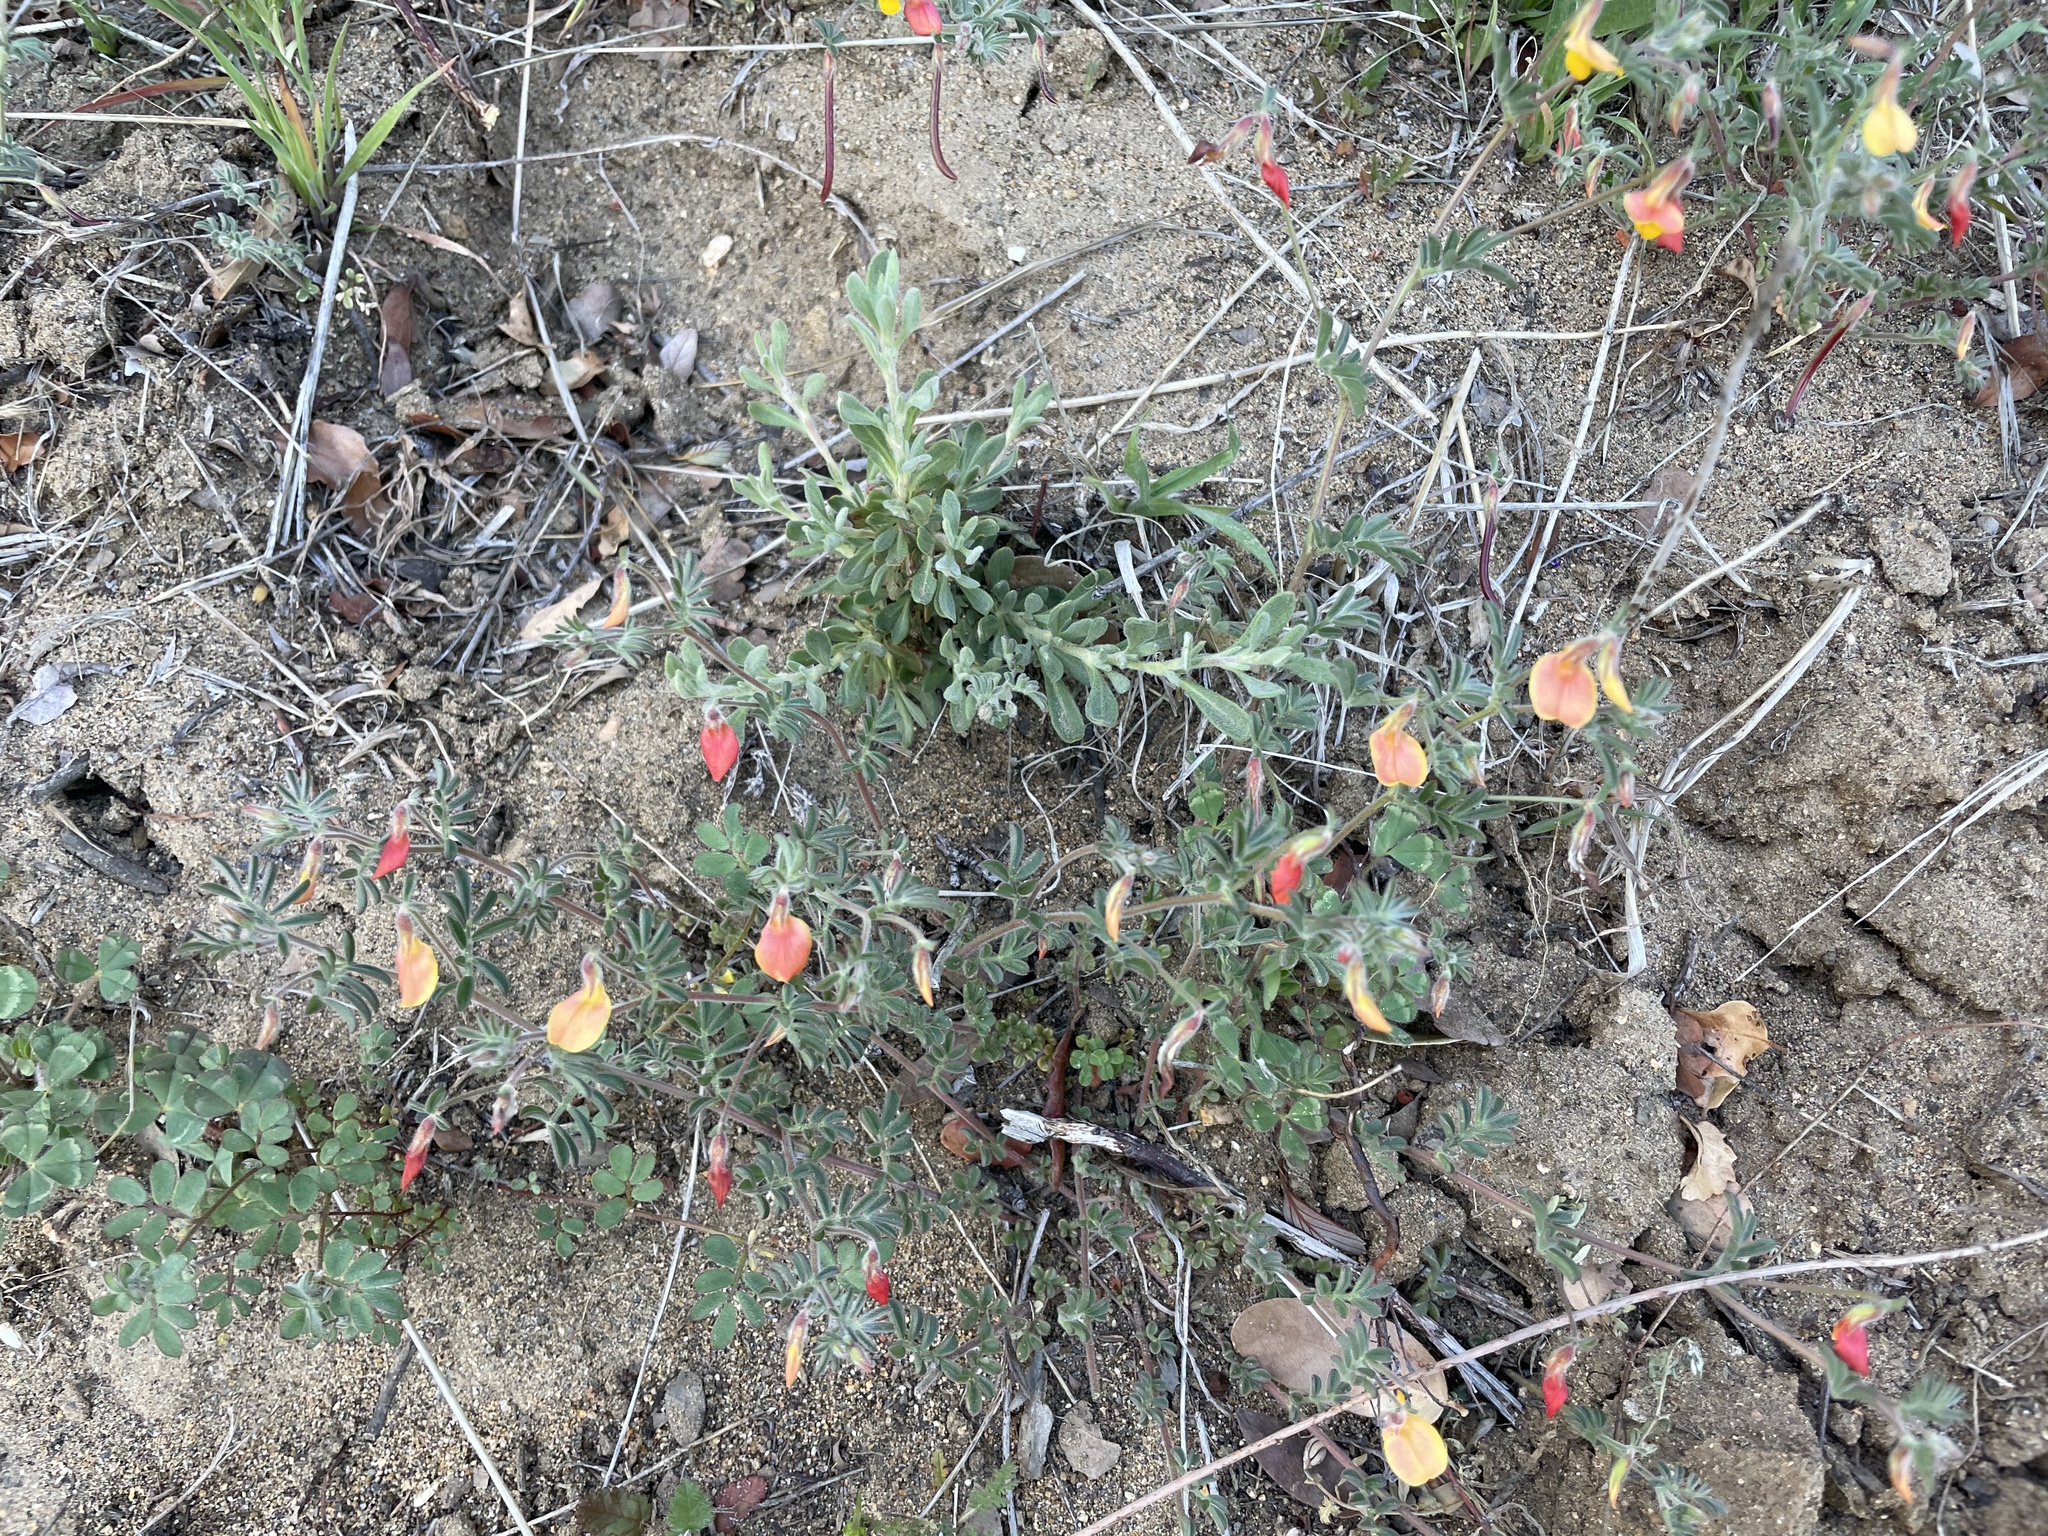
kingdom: Plantae
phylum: Tracheophyta
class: Magnoliopsida
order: Fabales
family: Fabaceae
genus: Acmispon
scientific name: Acmispon strigosus
